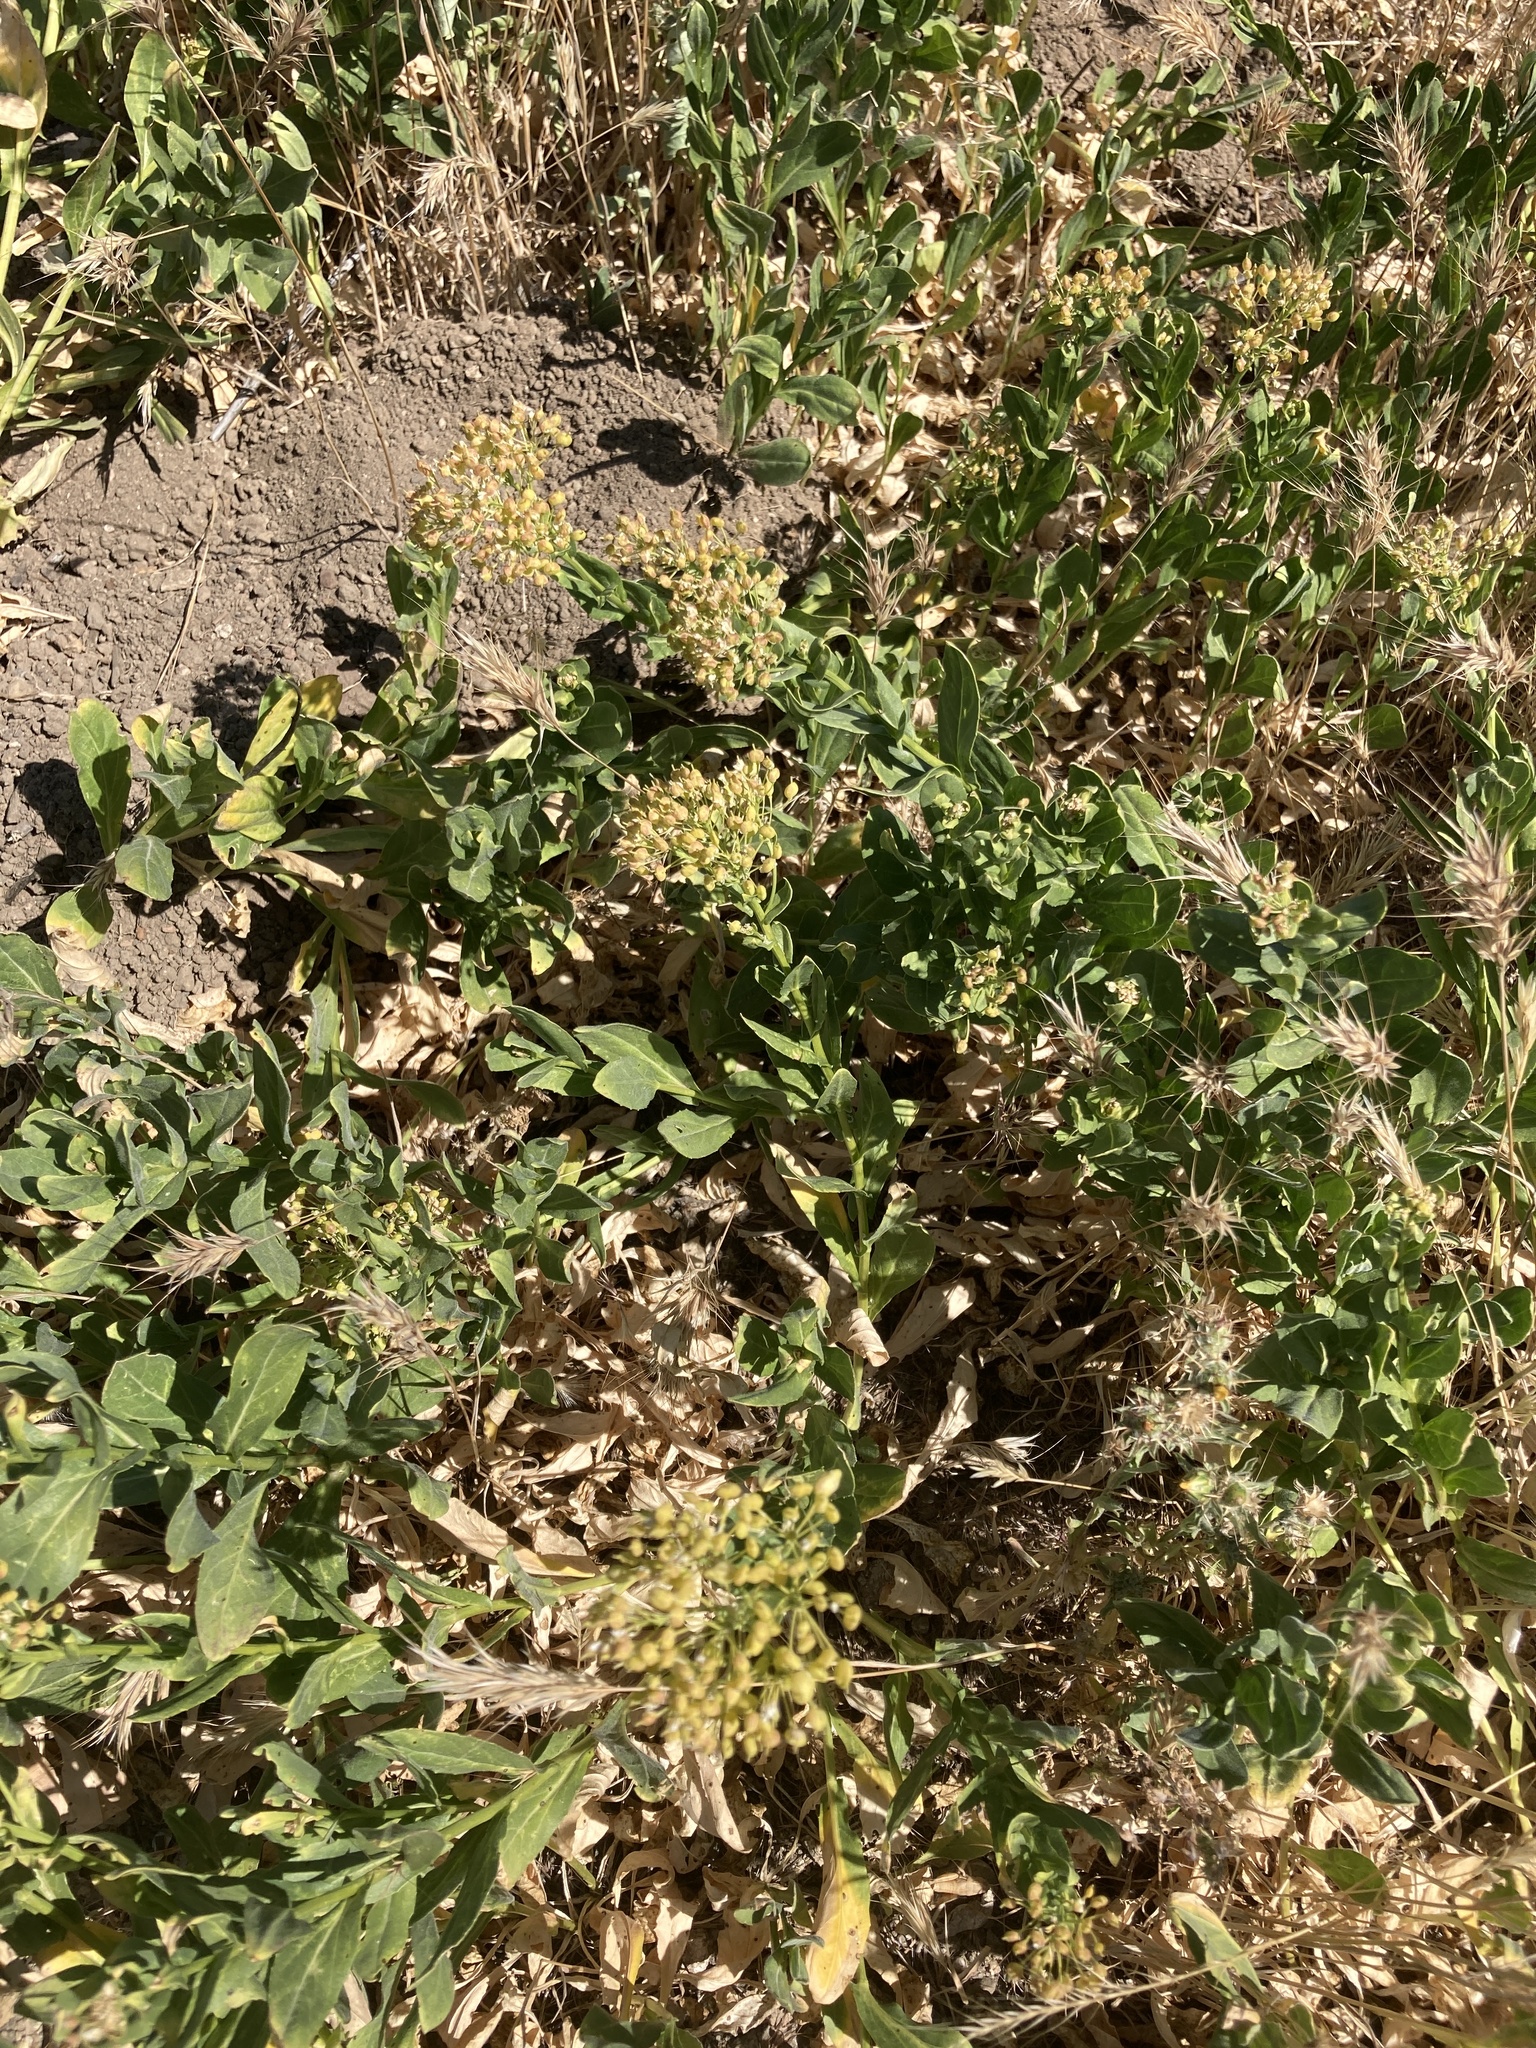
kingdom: Plantae
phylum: Tracheophyta
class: Magnoliopsida
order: Brassicales
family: Brassicaceae
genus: Lepidium
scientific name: Lepidium chalepense
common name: Orbicular whitetop
